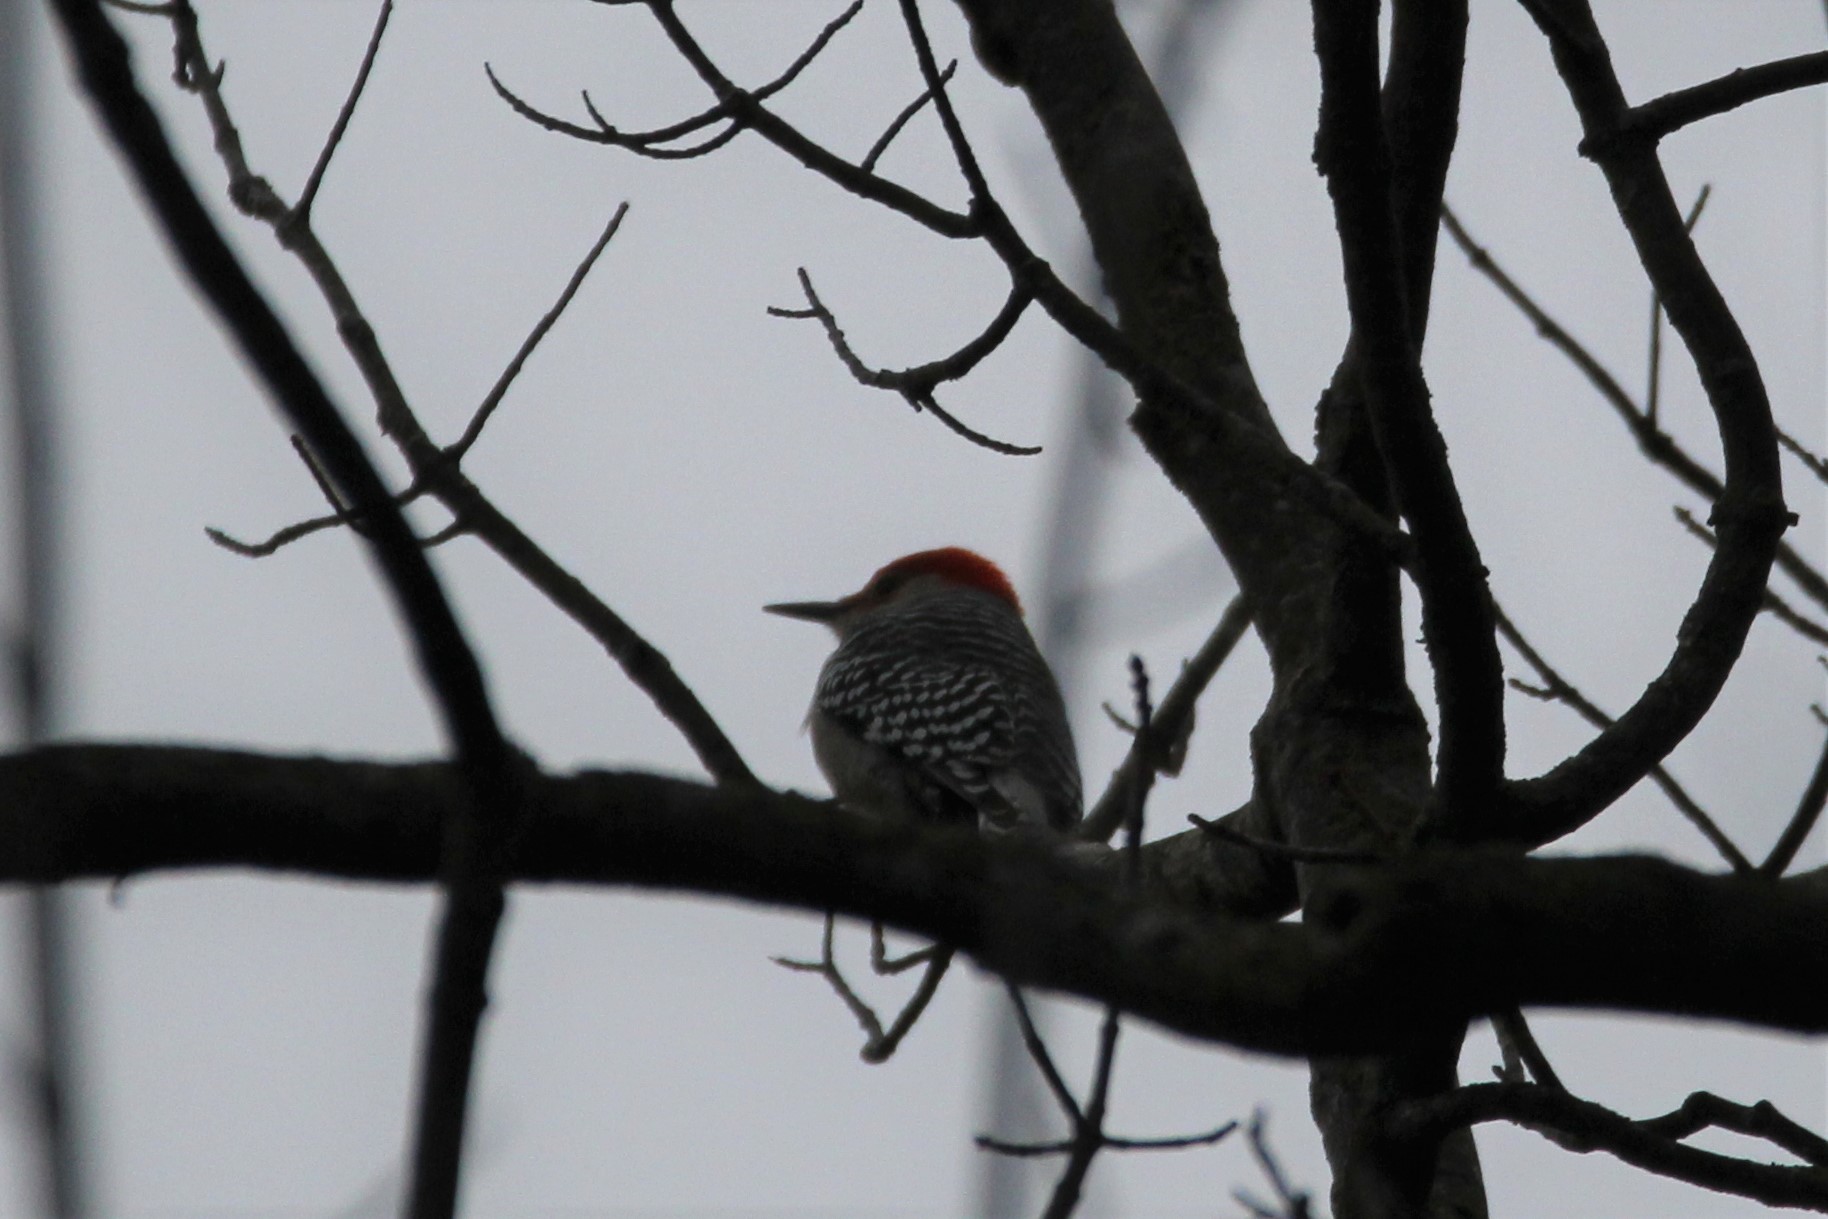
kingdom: Animalia
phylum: Chordata
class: Aves
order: Piciformes
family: Picidae
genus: Melanerpes
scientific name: Melanerpes carolinus
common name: Red-bellied woodpecker
